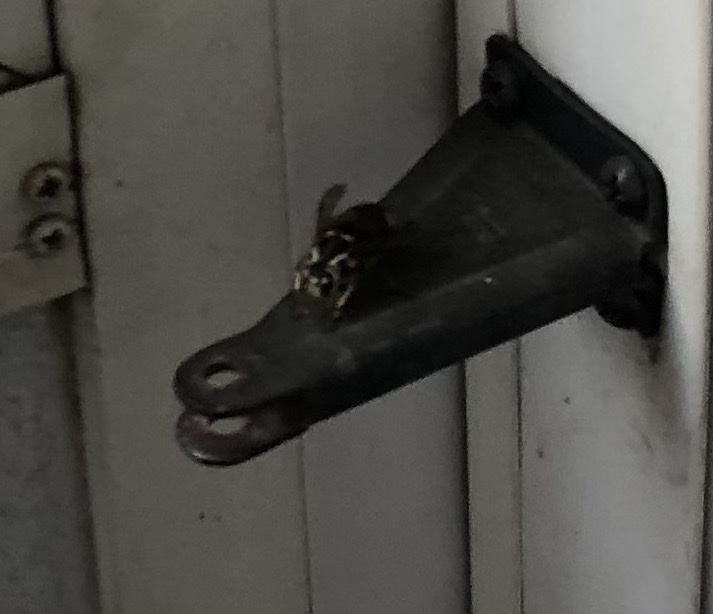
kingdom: Animalia
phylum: Arthropoda
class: Insecta
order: Hymenoptera
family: Vespidae
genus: Dolichovespula
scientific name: Dolichovespula maculata
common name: Bald-faced hornet
